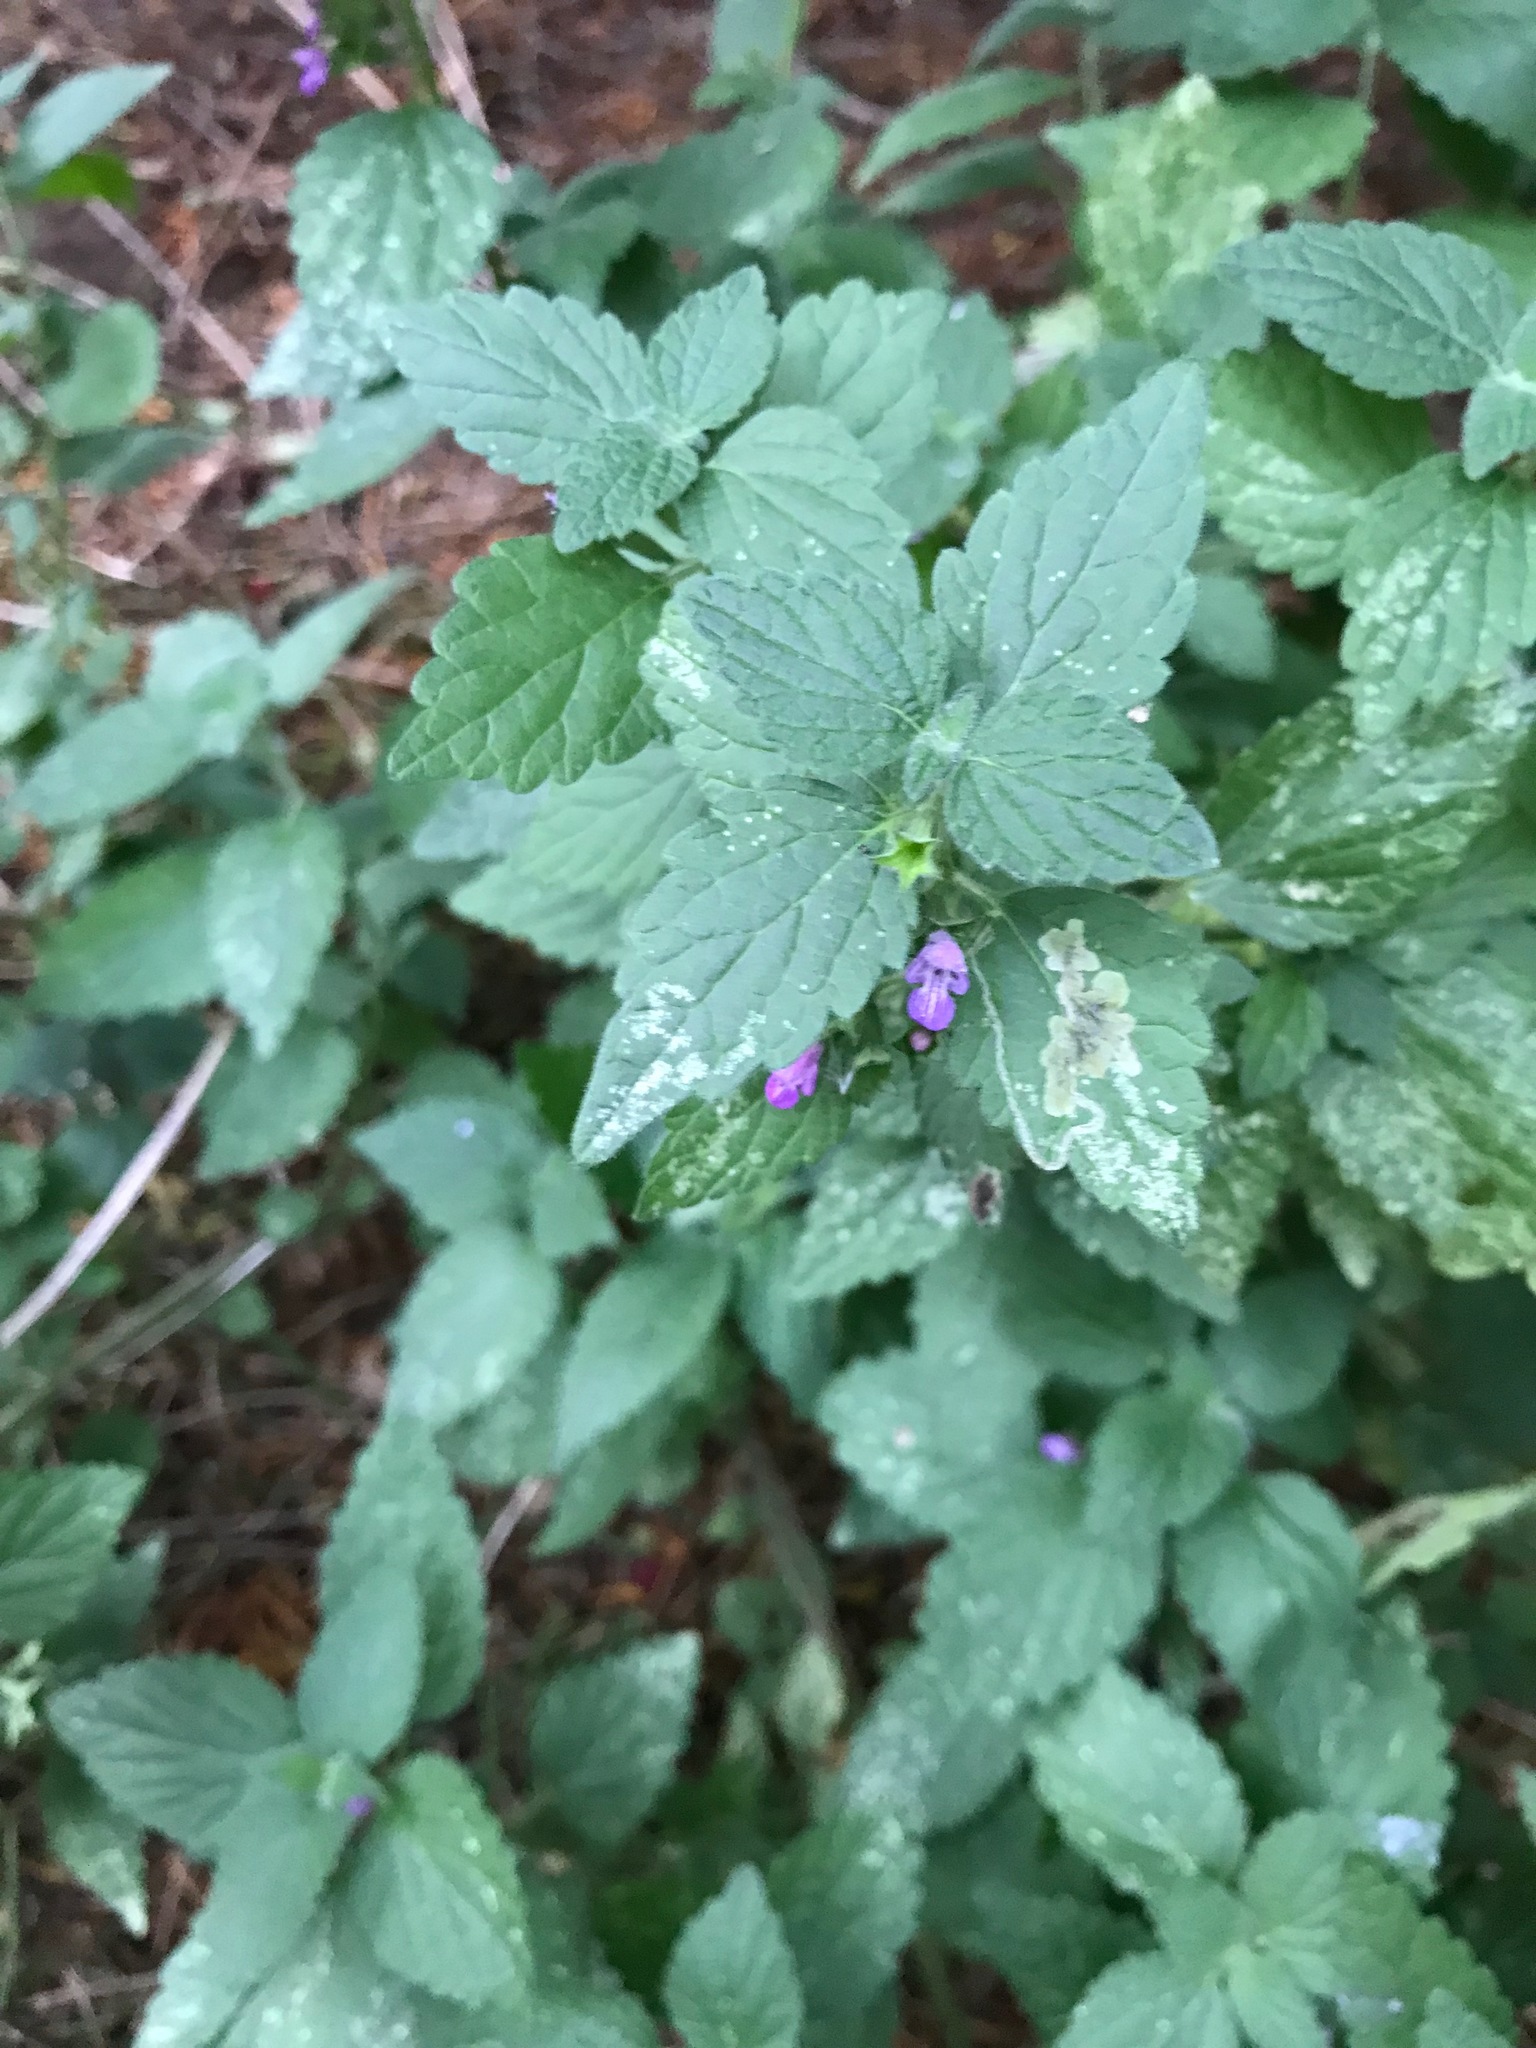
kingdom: Plantae
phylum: Tracheophyta
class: Magnoliopsida
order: Lamiales
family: Lamiaceae
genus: Ballota
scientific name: Ballota nigra
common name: Black horehound
